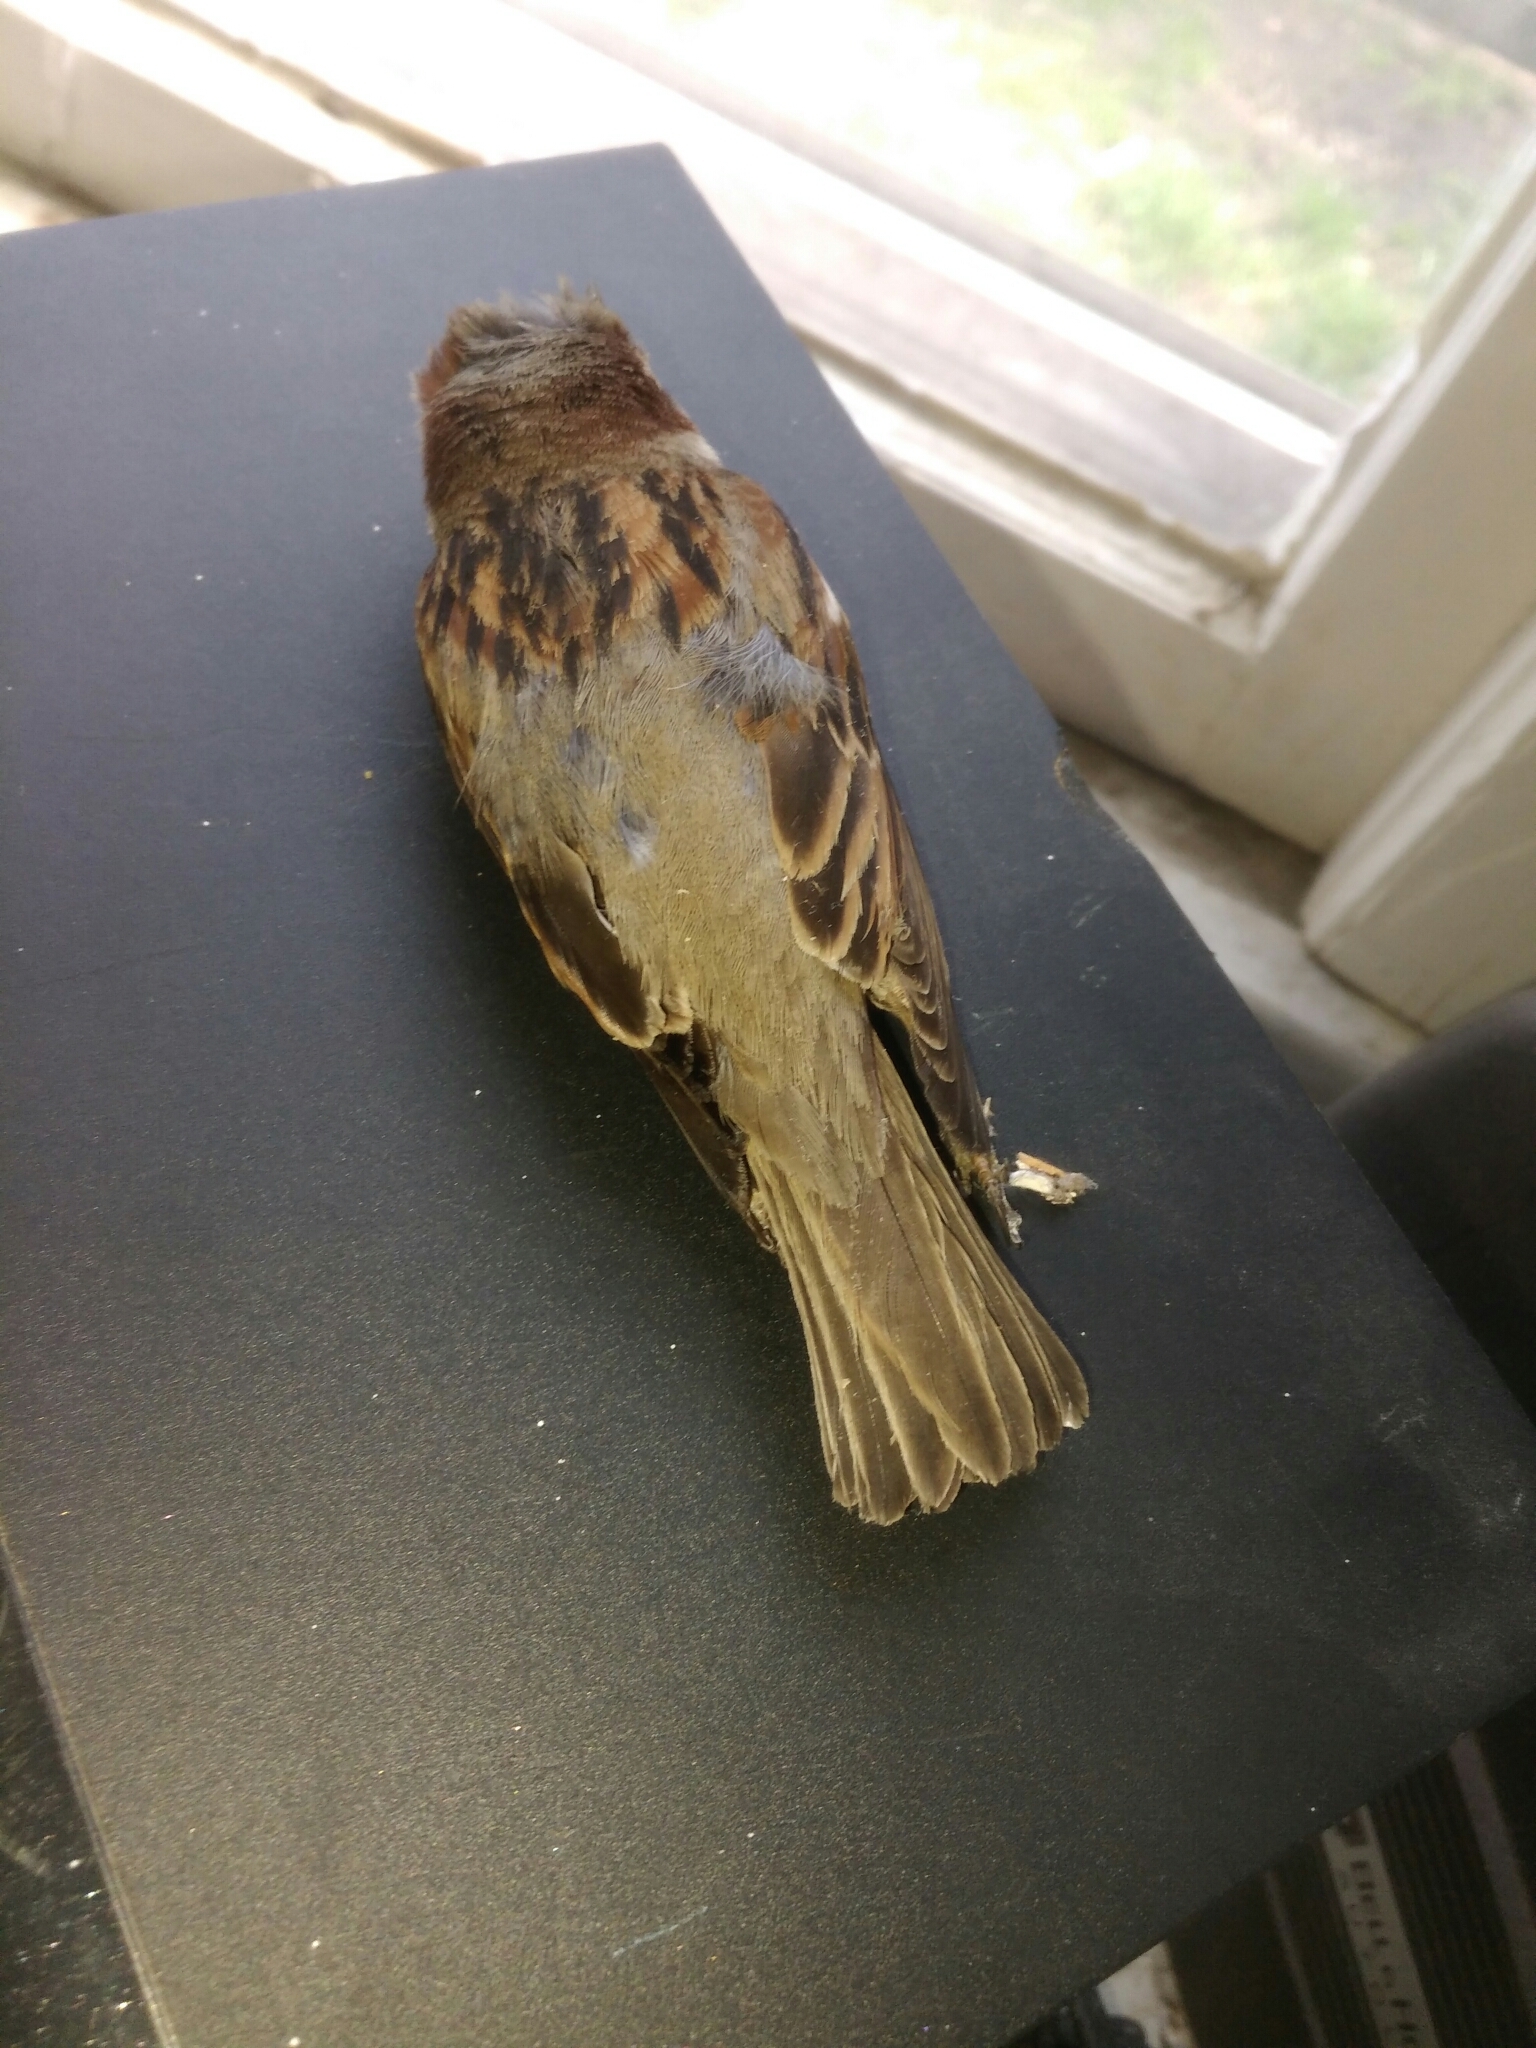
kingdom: Animalia
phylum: Chordata
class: Aves
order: Passeriformes
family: Passeridae
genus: Passer
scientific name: Passer domesticus
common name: House sparrow
